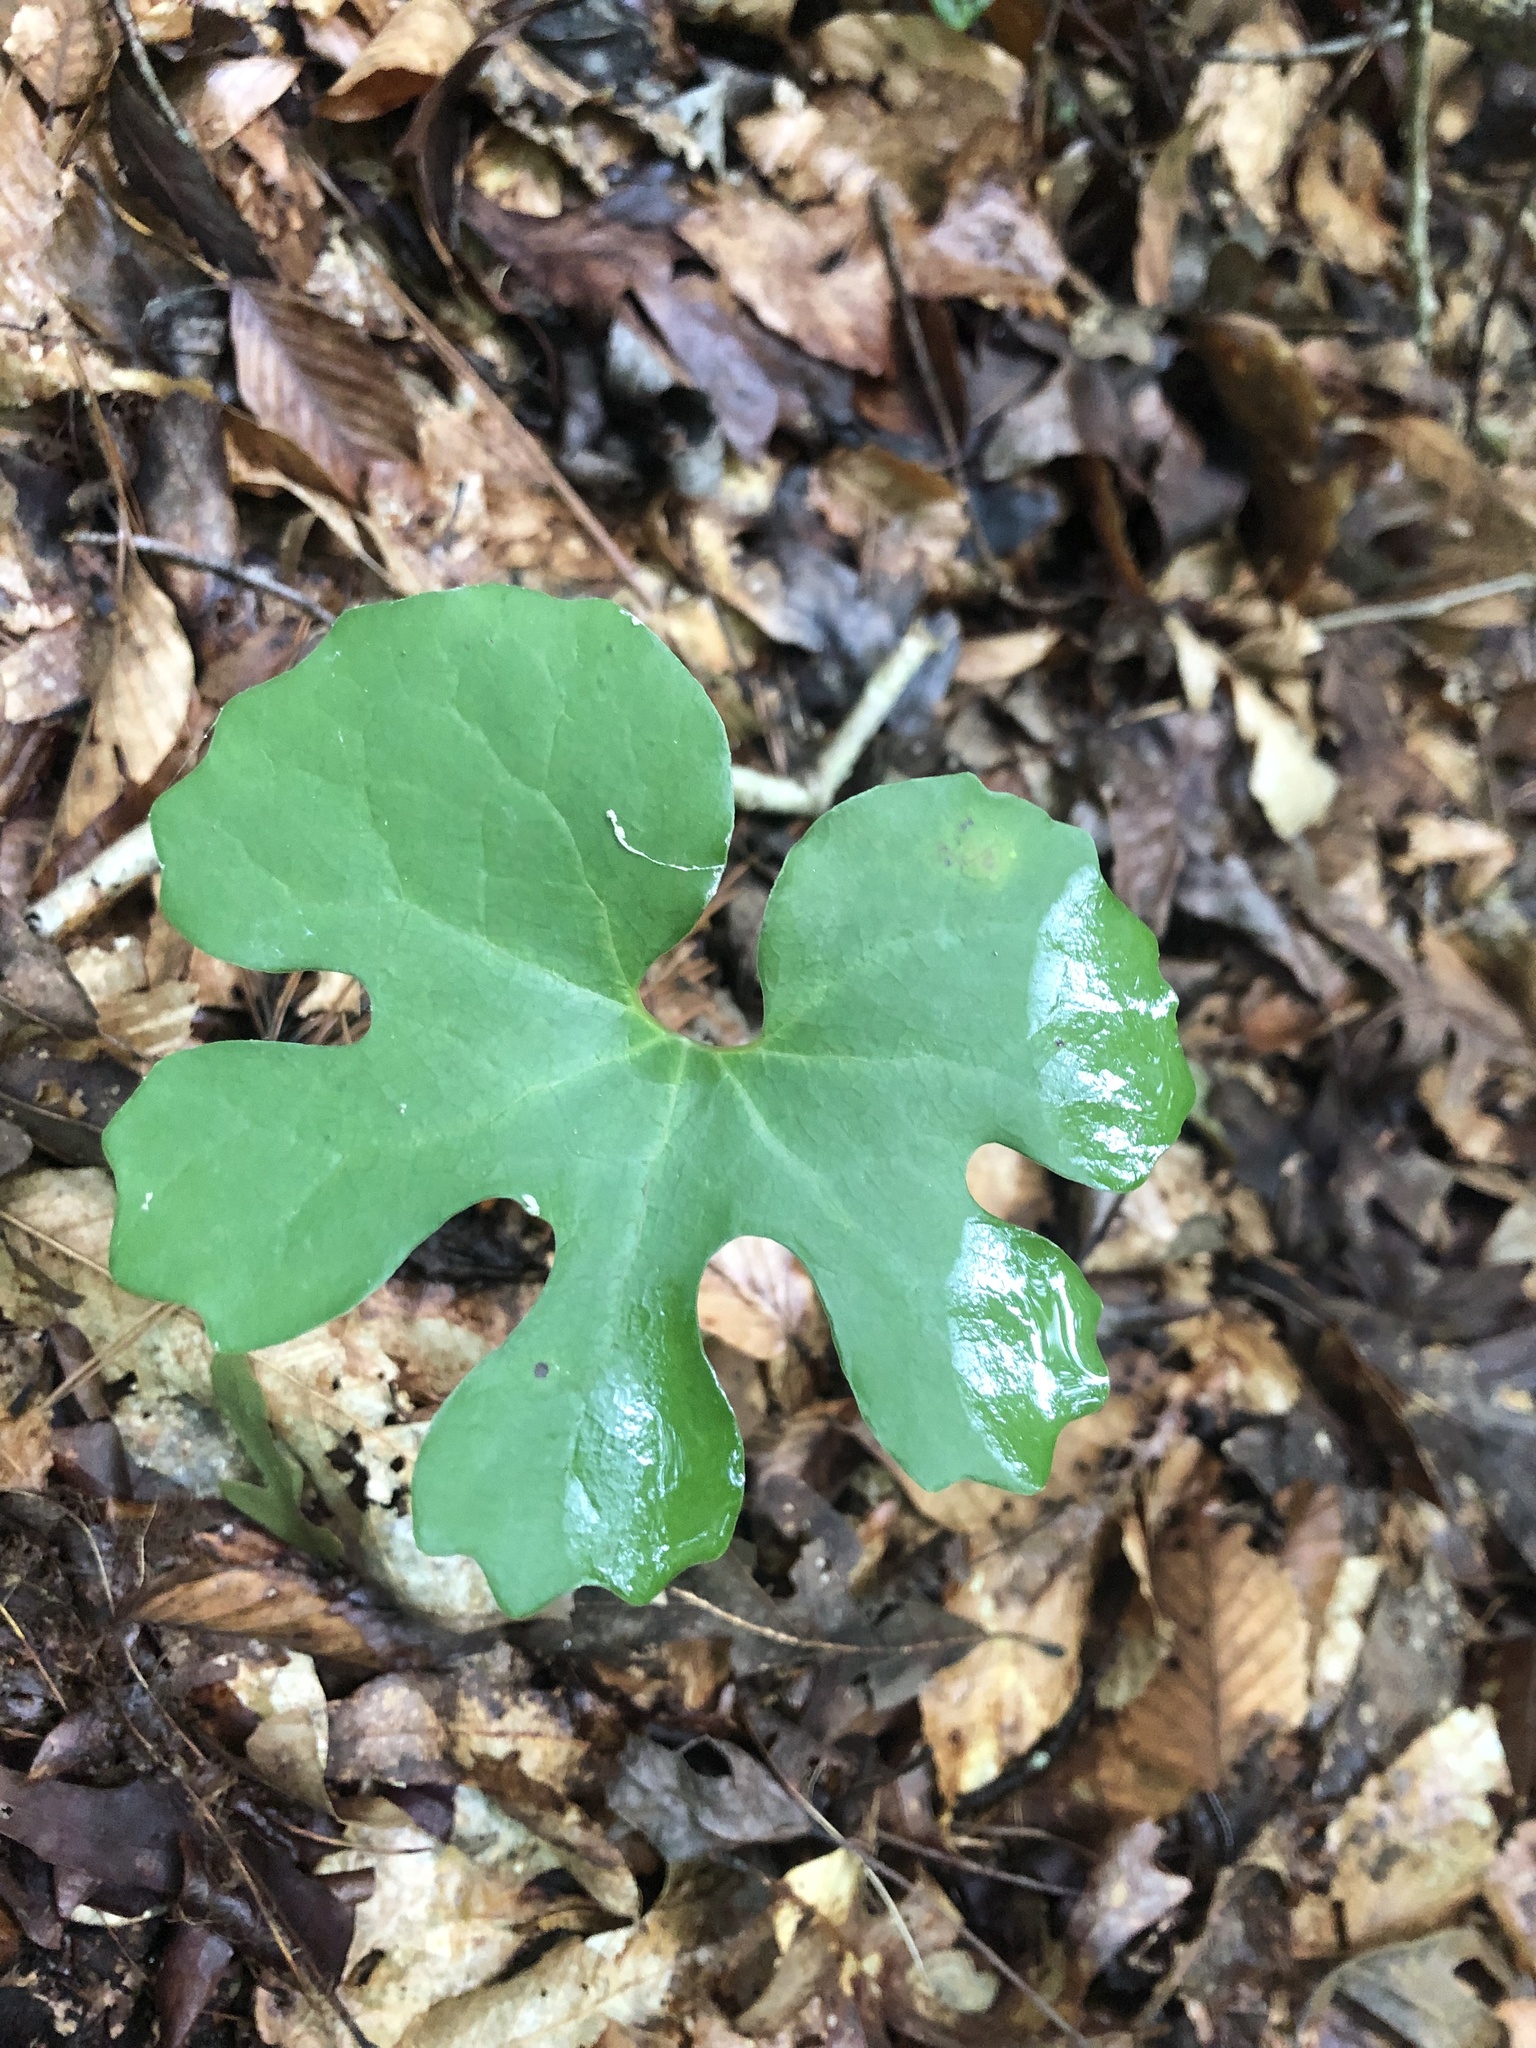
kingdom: Plantae
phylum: Tracheophyta
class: Magnoliopsida
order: Ranunculales
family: Papaveraceae
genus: Sanguinaria
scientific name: Sanguinaria canadensis
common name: Bloodroot
